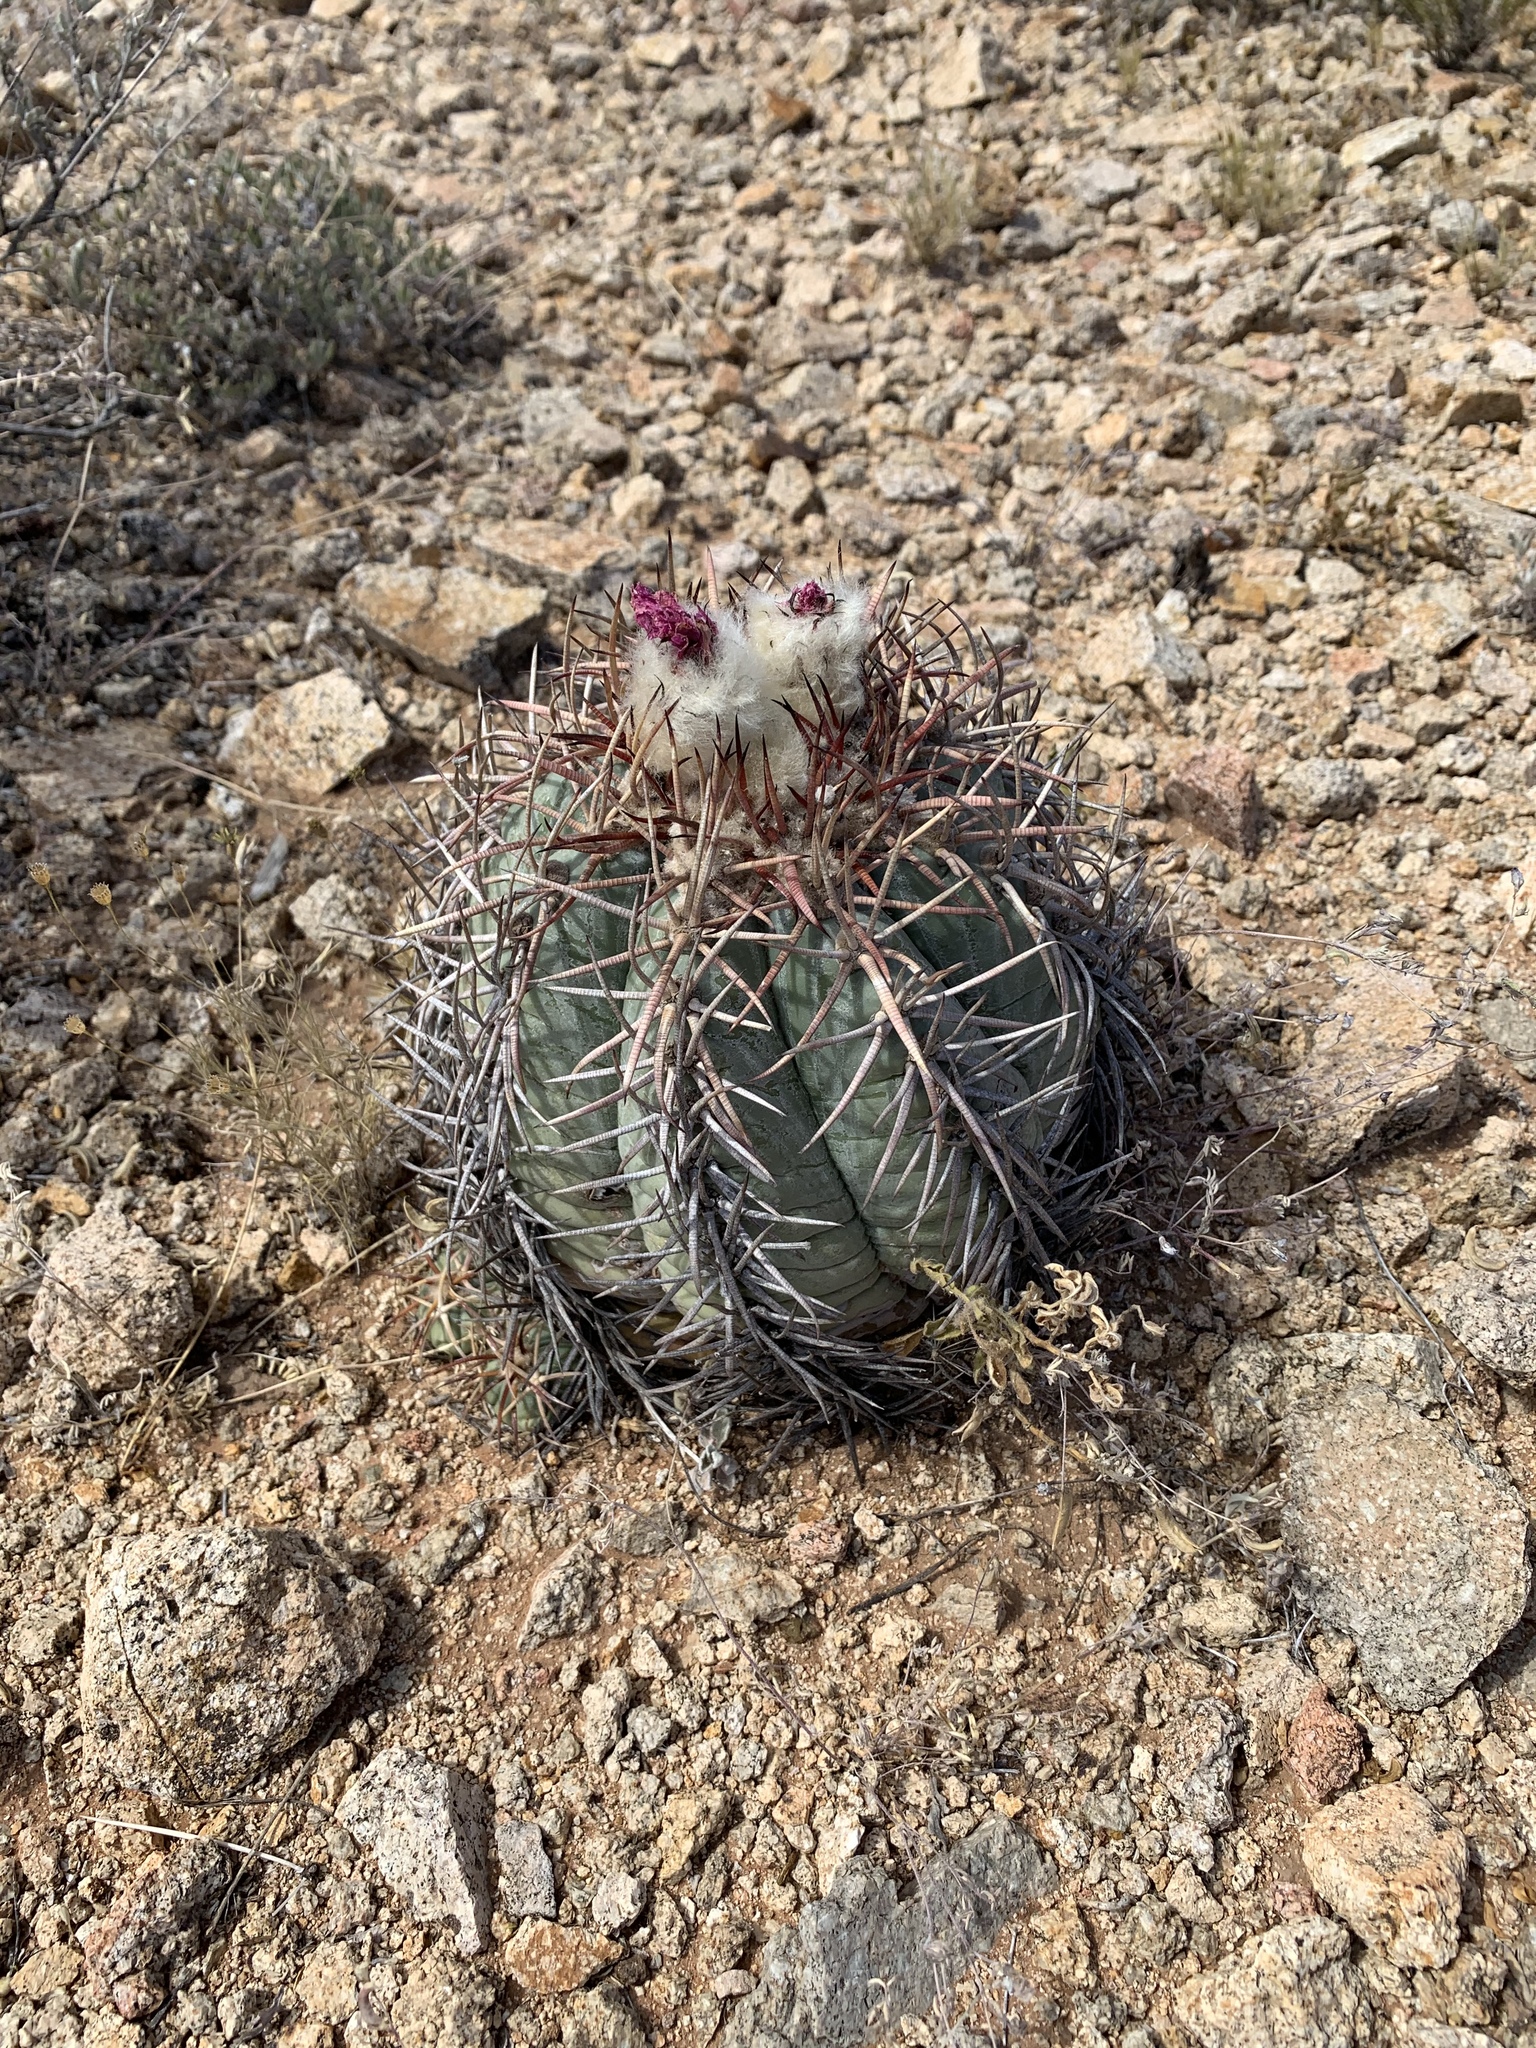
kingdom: Plantae
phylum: Tracheophyta
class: Magnoliopsida
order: Caryophyllales
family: Cactaceae
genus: Echinocactus
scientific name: Echinocactus horizonthalonius
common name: Devilshead
